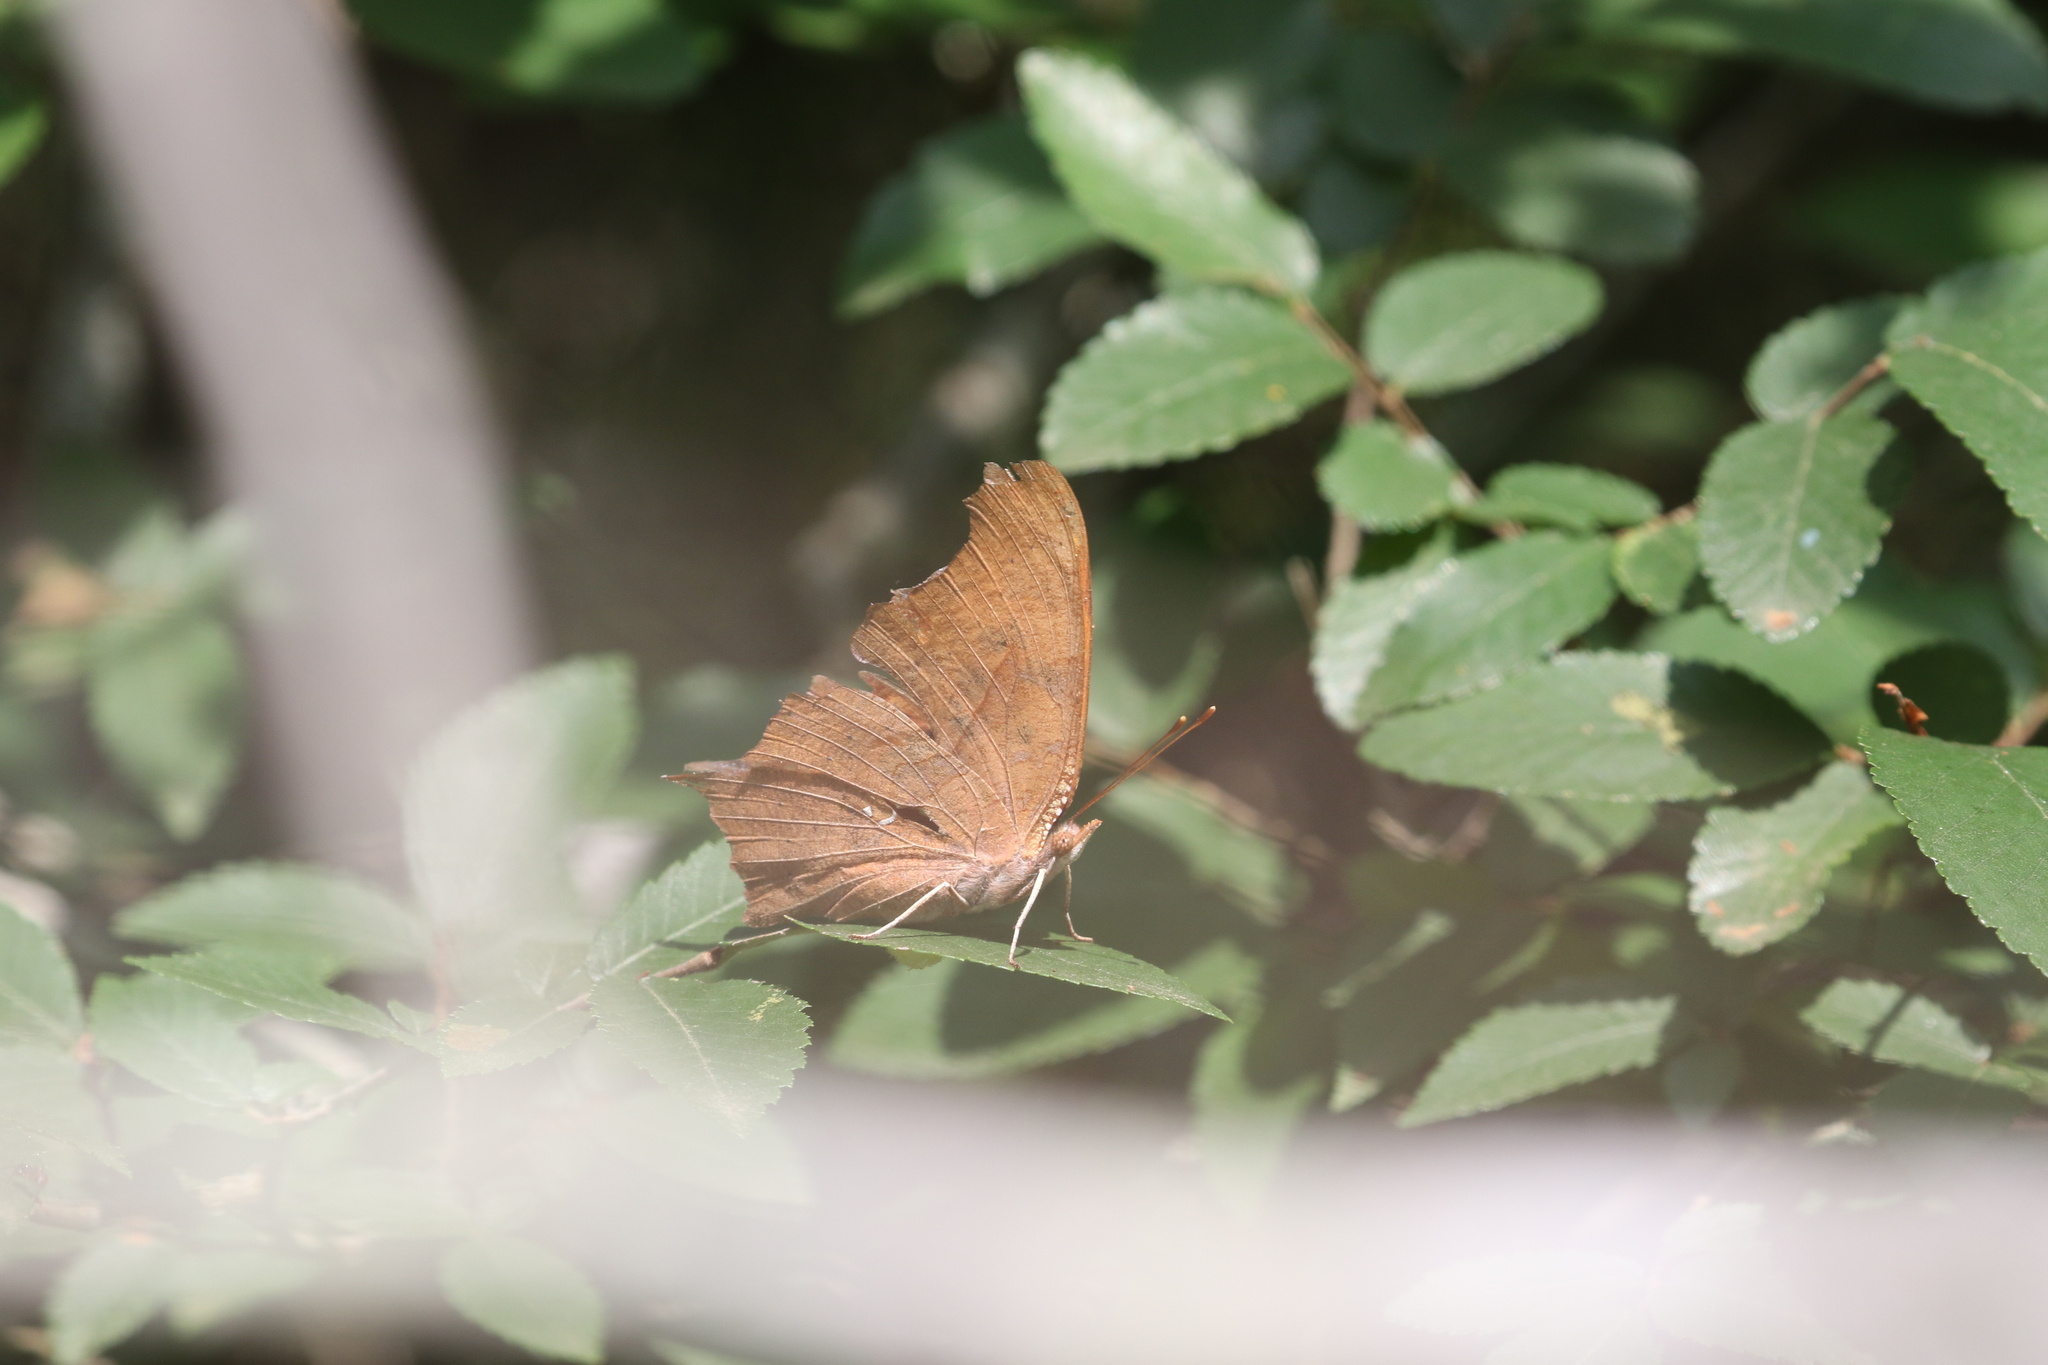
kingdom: Animalia
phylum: Arthropoda
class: Insecta
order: Lepidoptera
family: Nymphalidae
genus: Polygonia
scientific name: Polygonia interrogationis
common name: Question mark
